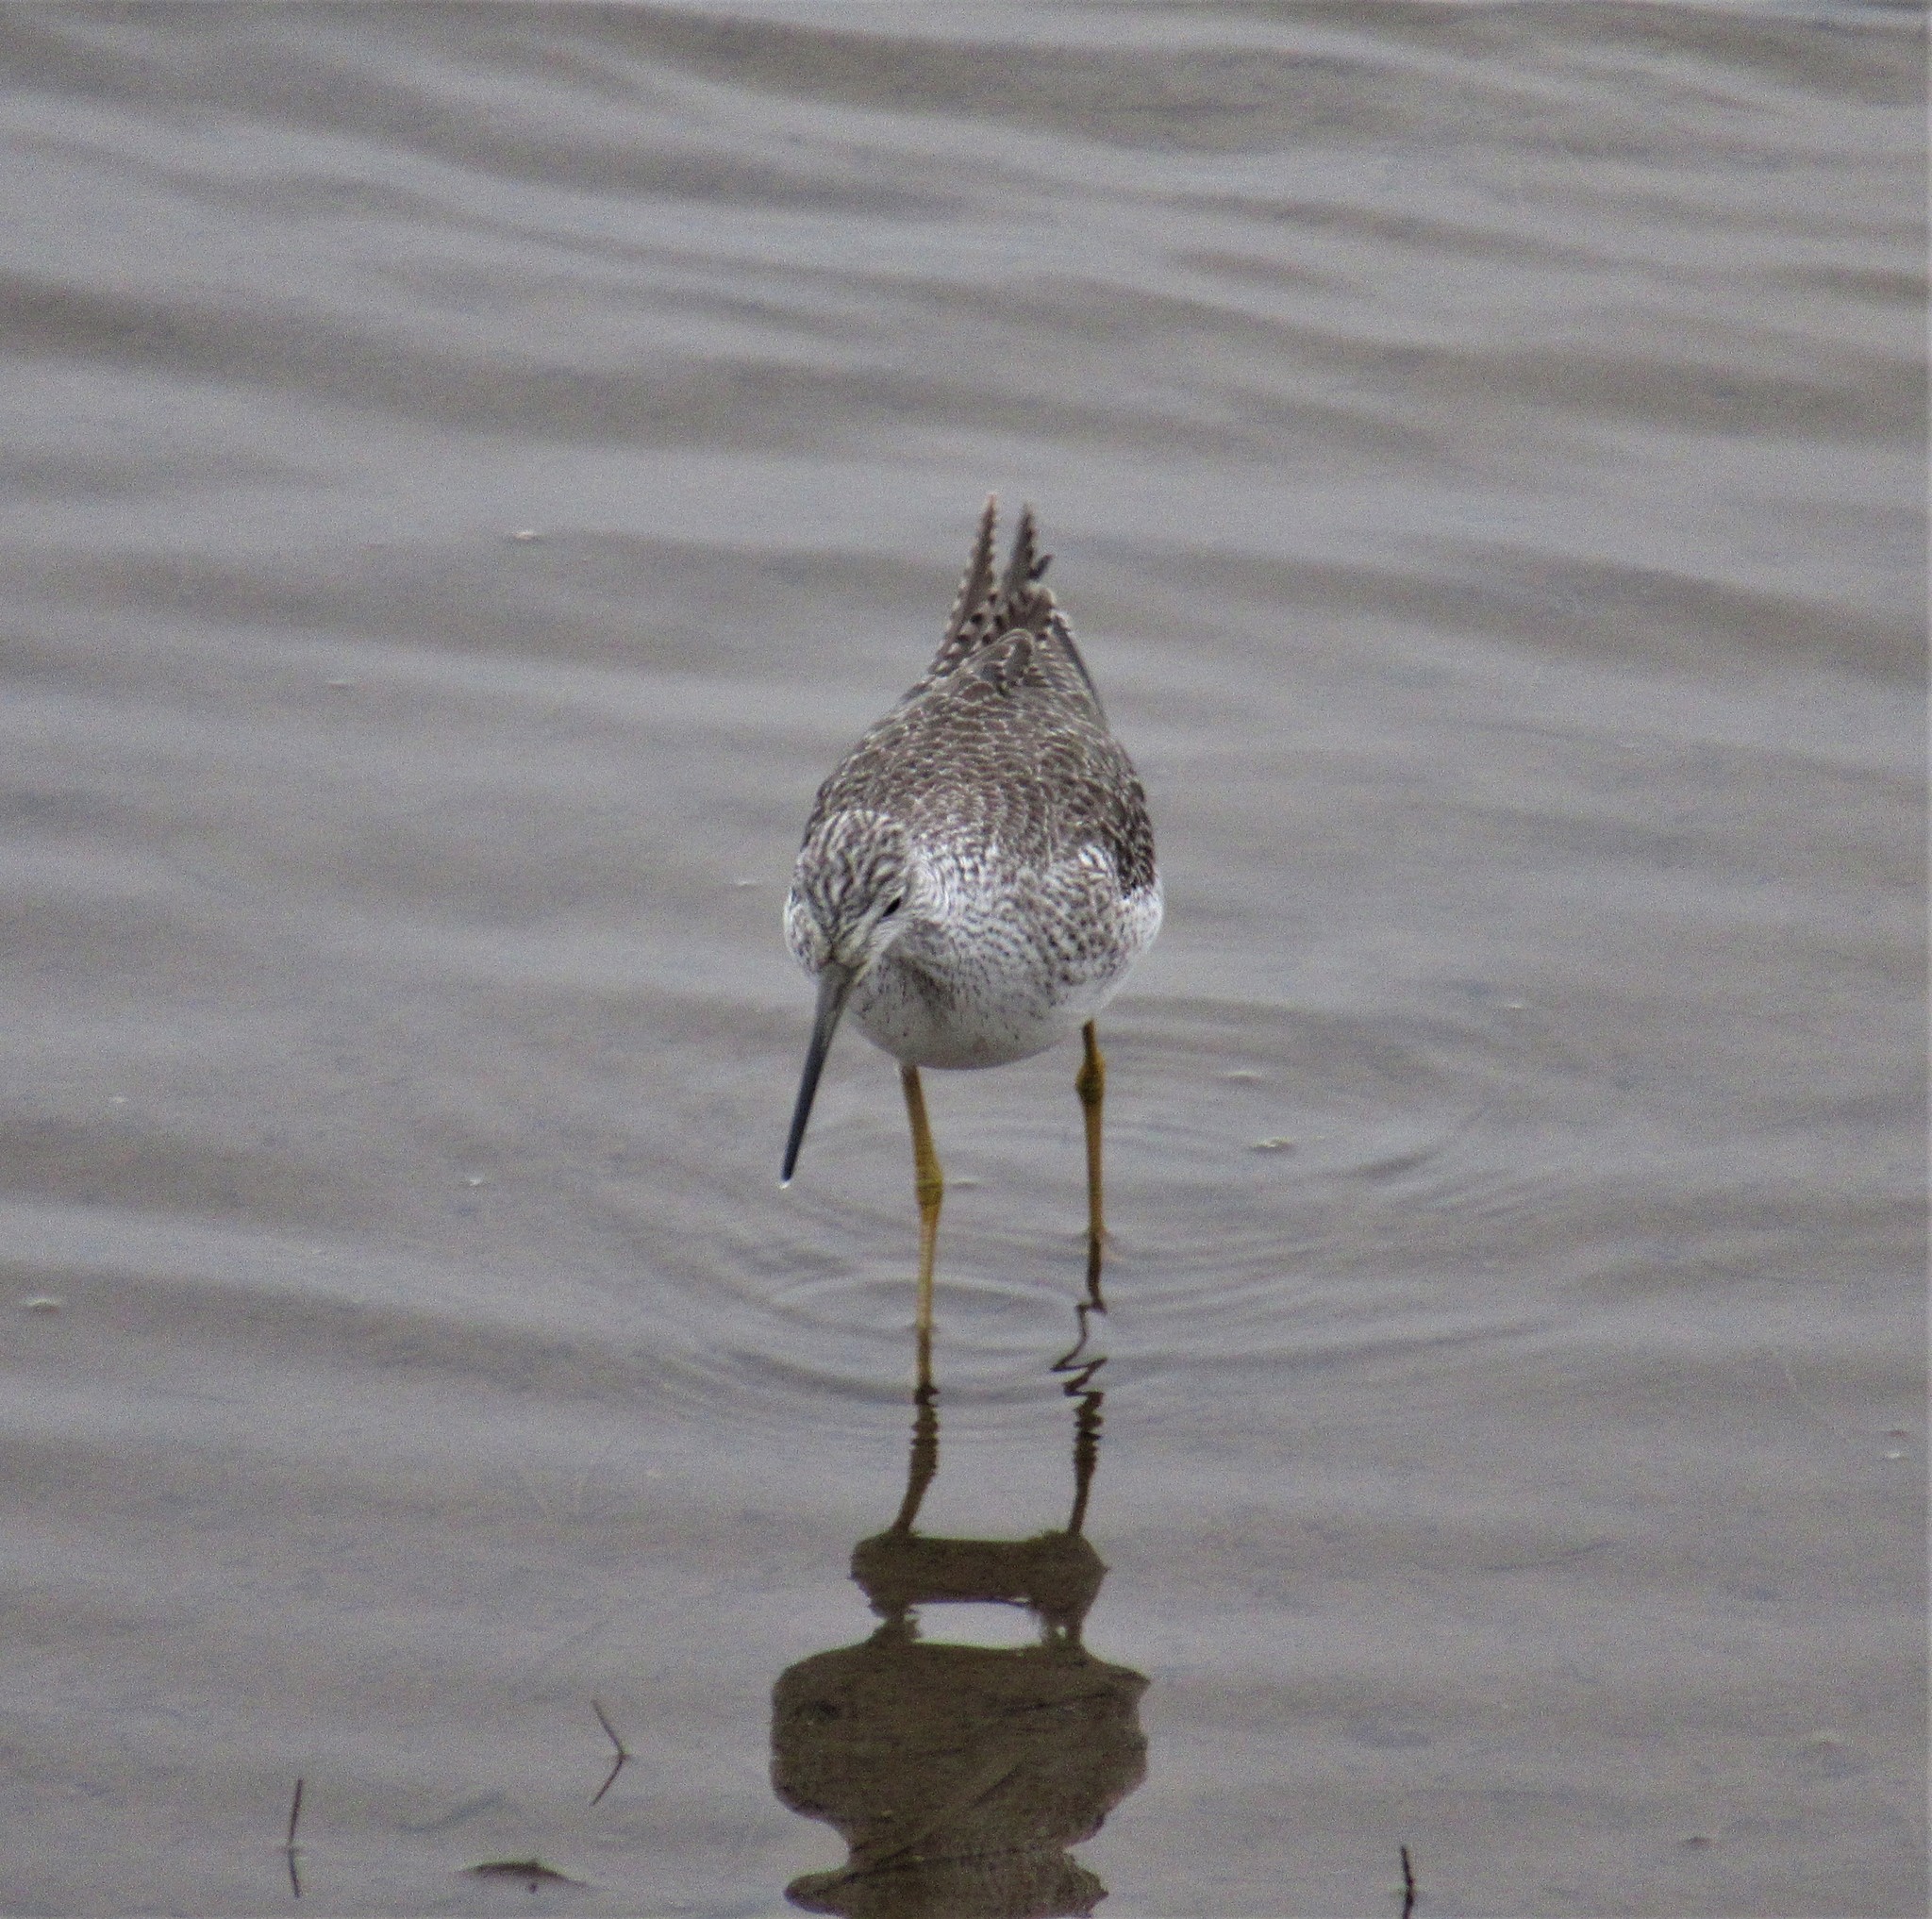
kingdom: Animalia
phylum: Chordata
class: Aves
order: Charadriiformes
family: Scolopacidae
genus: Tringa
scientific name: Tringa melanoleuca
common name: Greater yellowlegs
